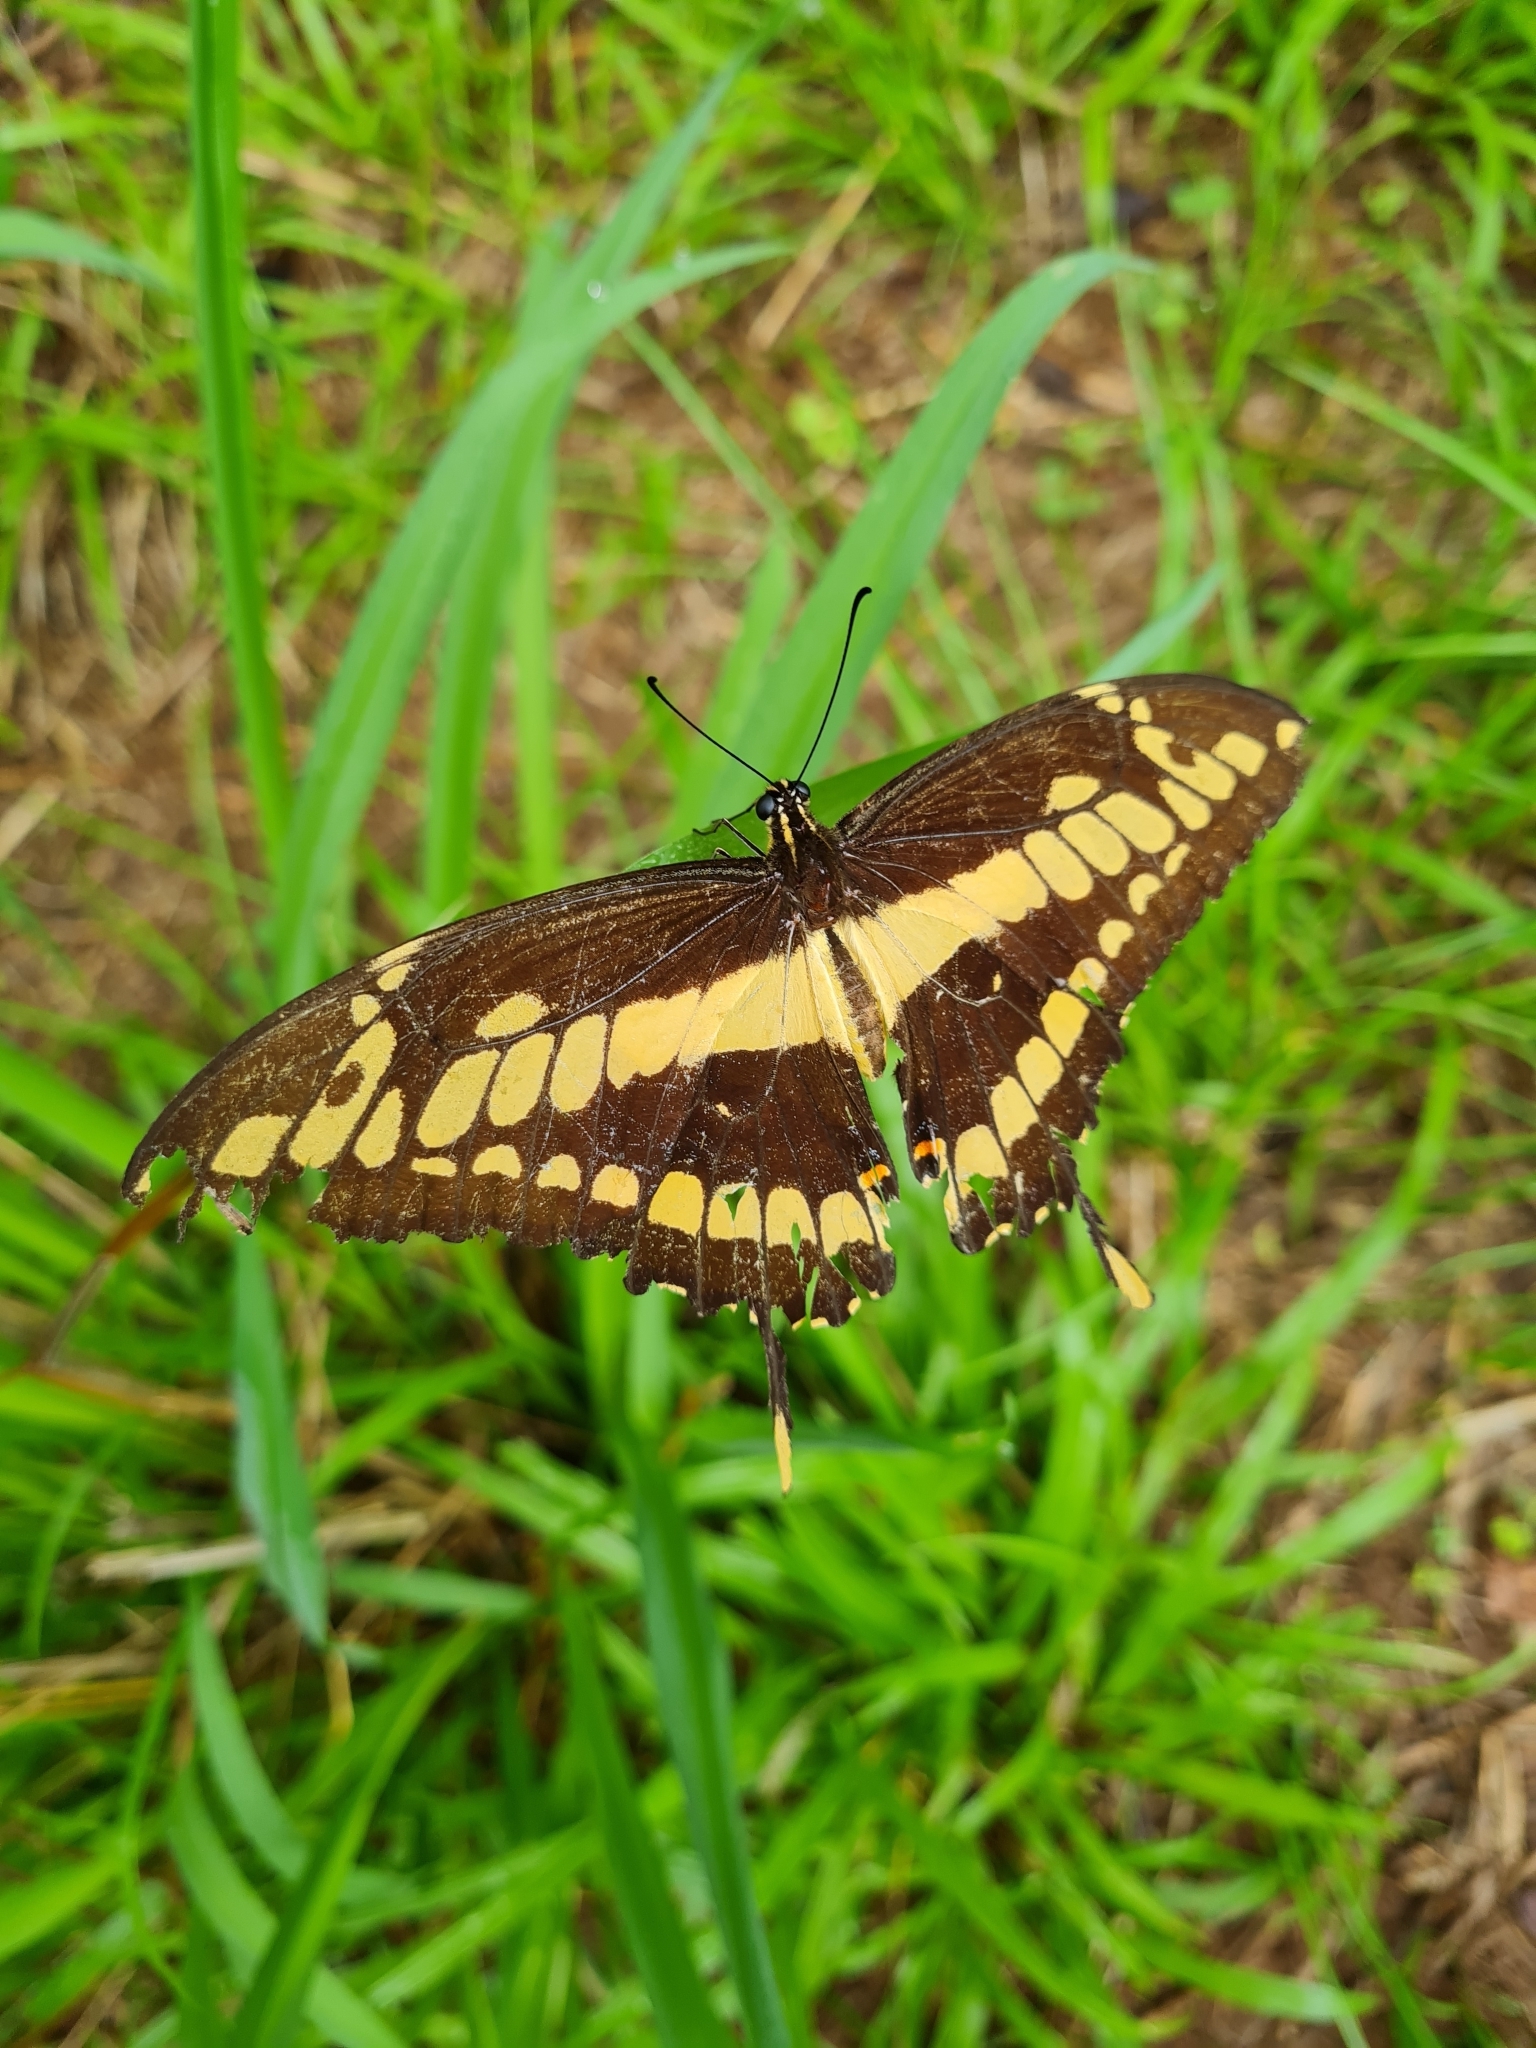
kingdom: Animalia
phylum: Arthropoda
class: Insecta
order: Lepidoptera
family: Papilionidae
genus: Papilio
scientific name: Papilio thoas
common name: King swallowtail
